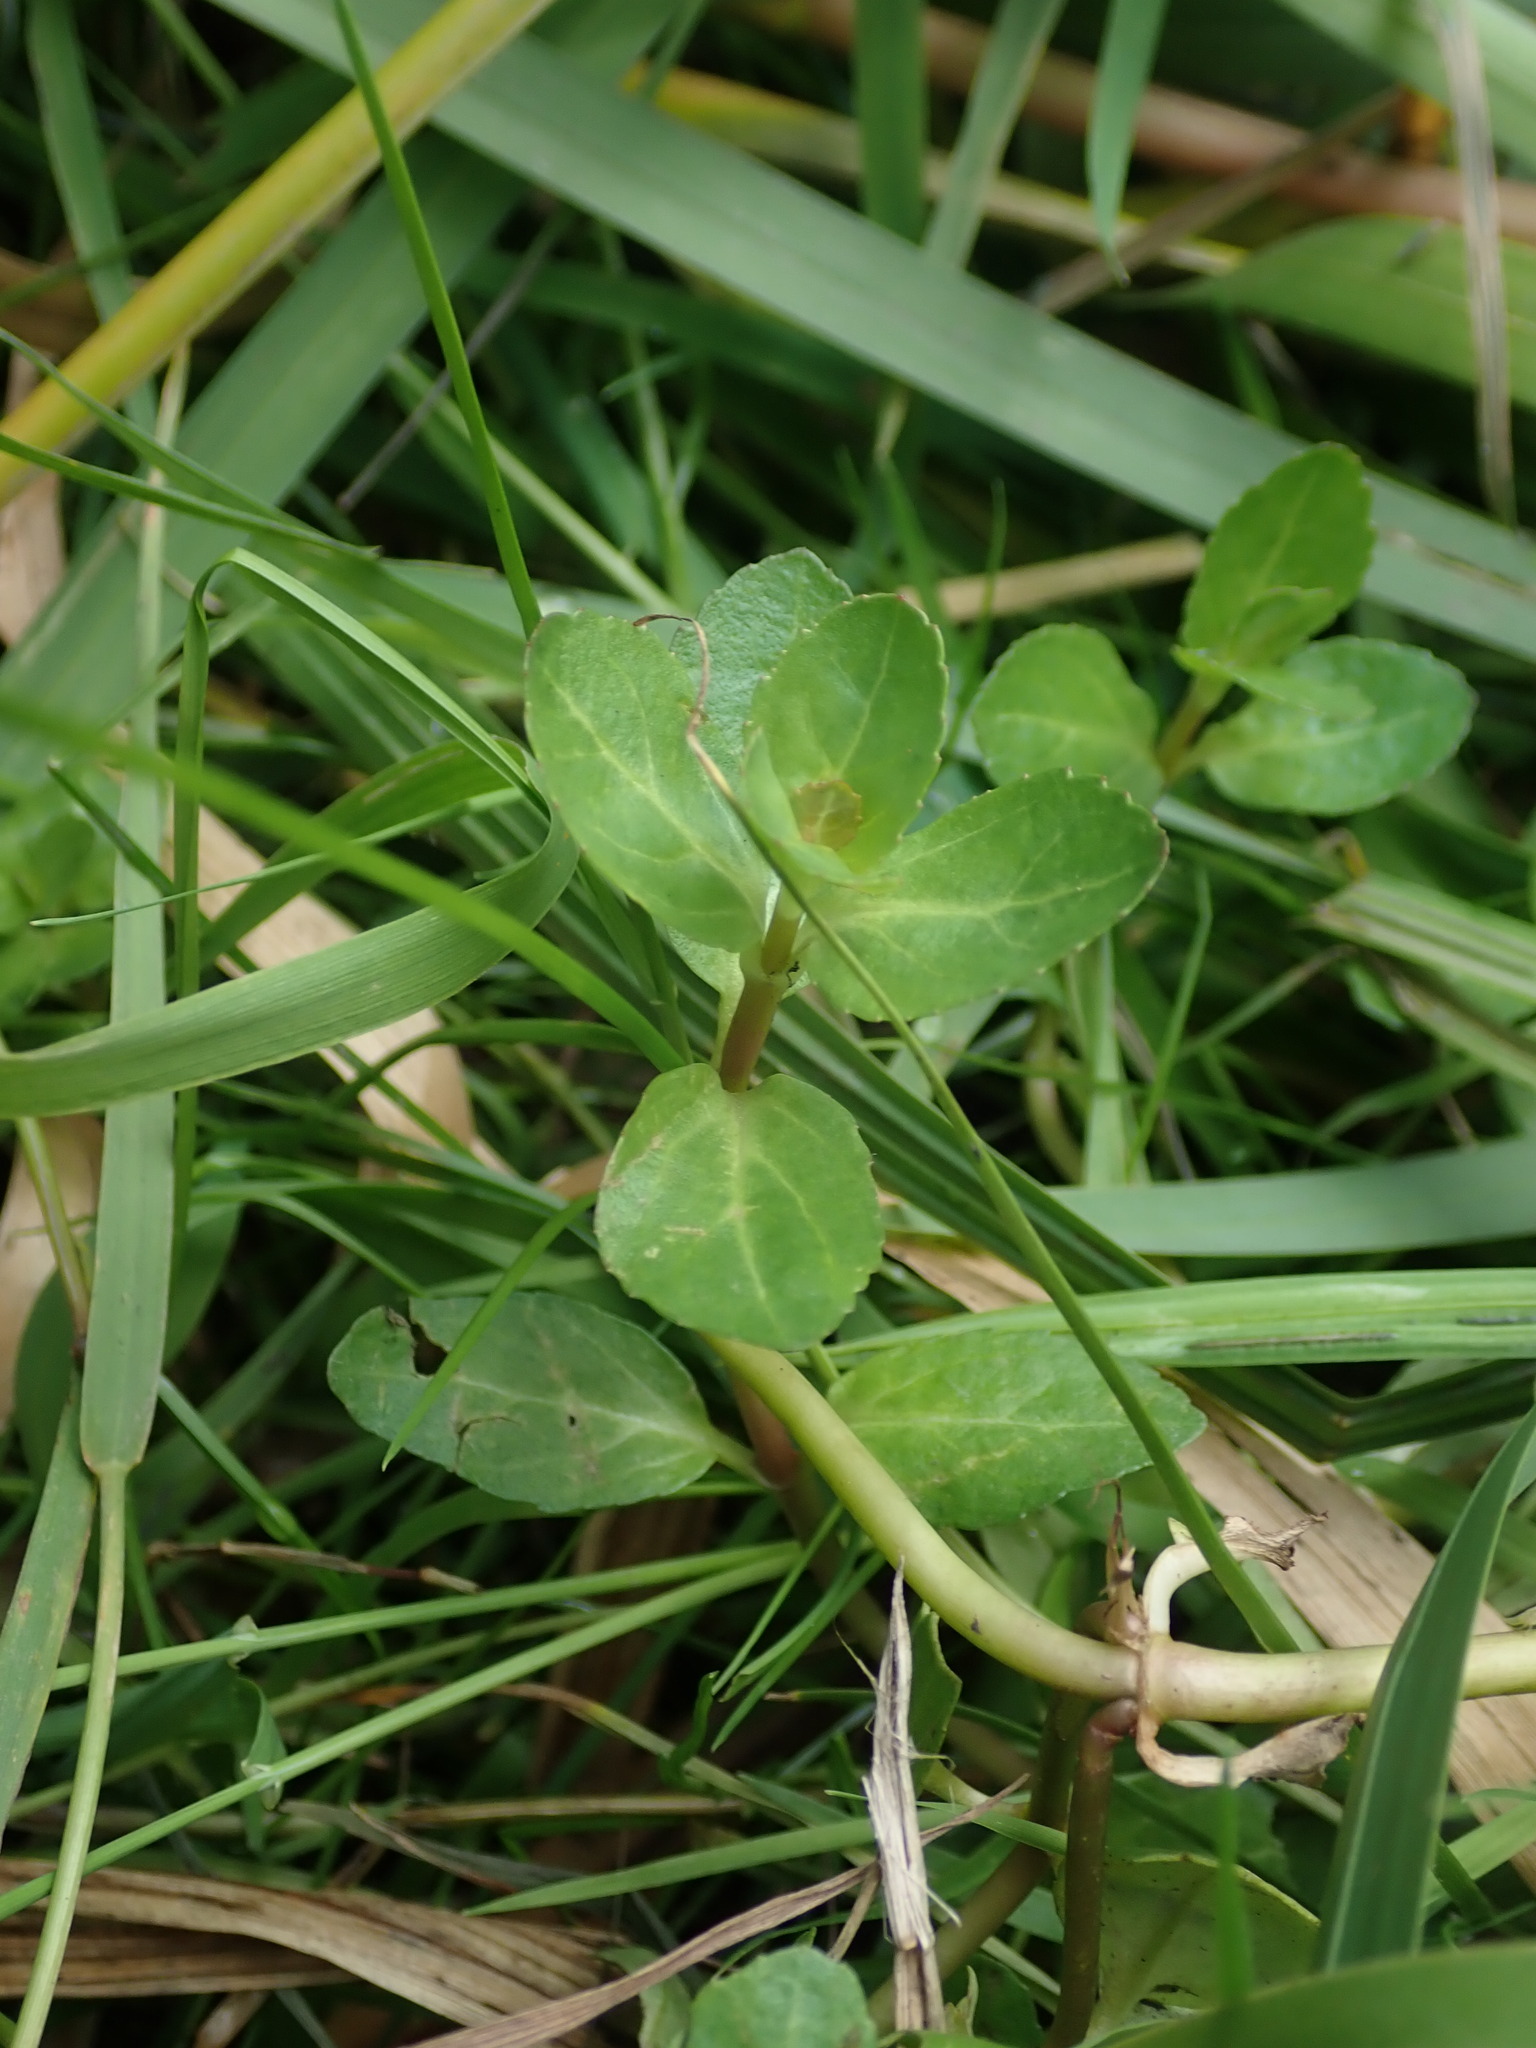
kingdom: Plantae
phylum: Tracheophyta
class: Magnoliopsida
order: Lamiales
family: Plantaginaceae
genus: Veronica
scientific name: Veronica beccabunga
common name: Brooklime
